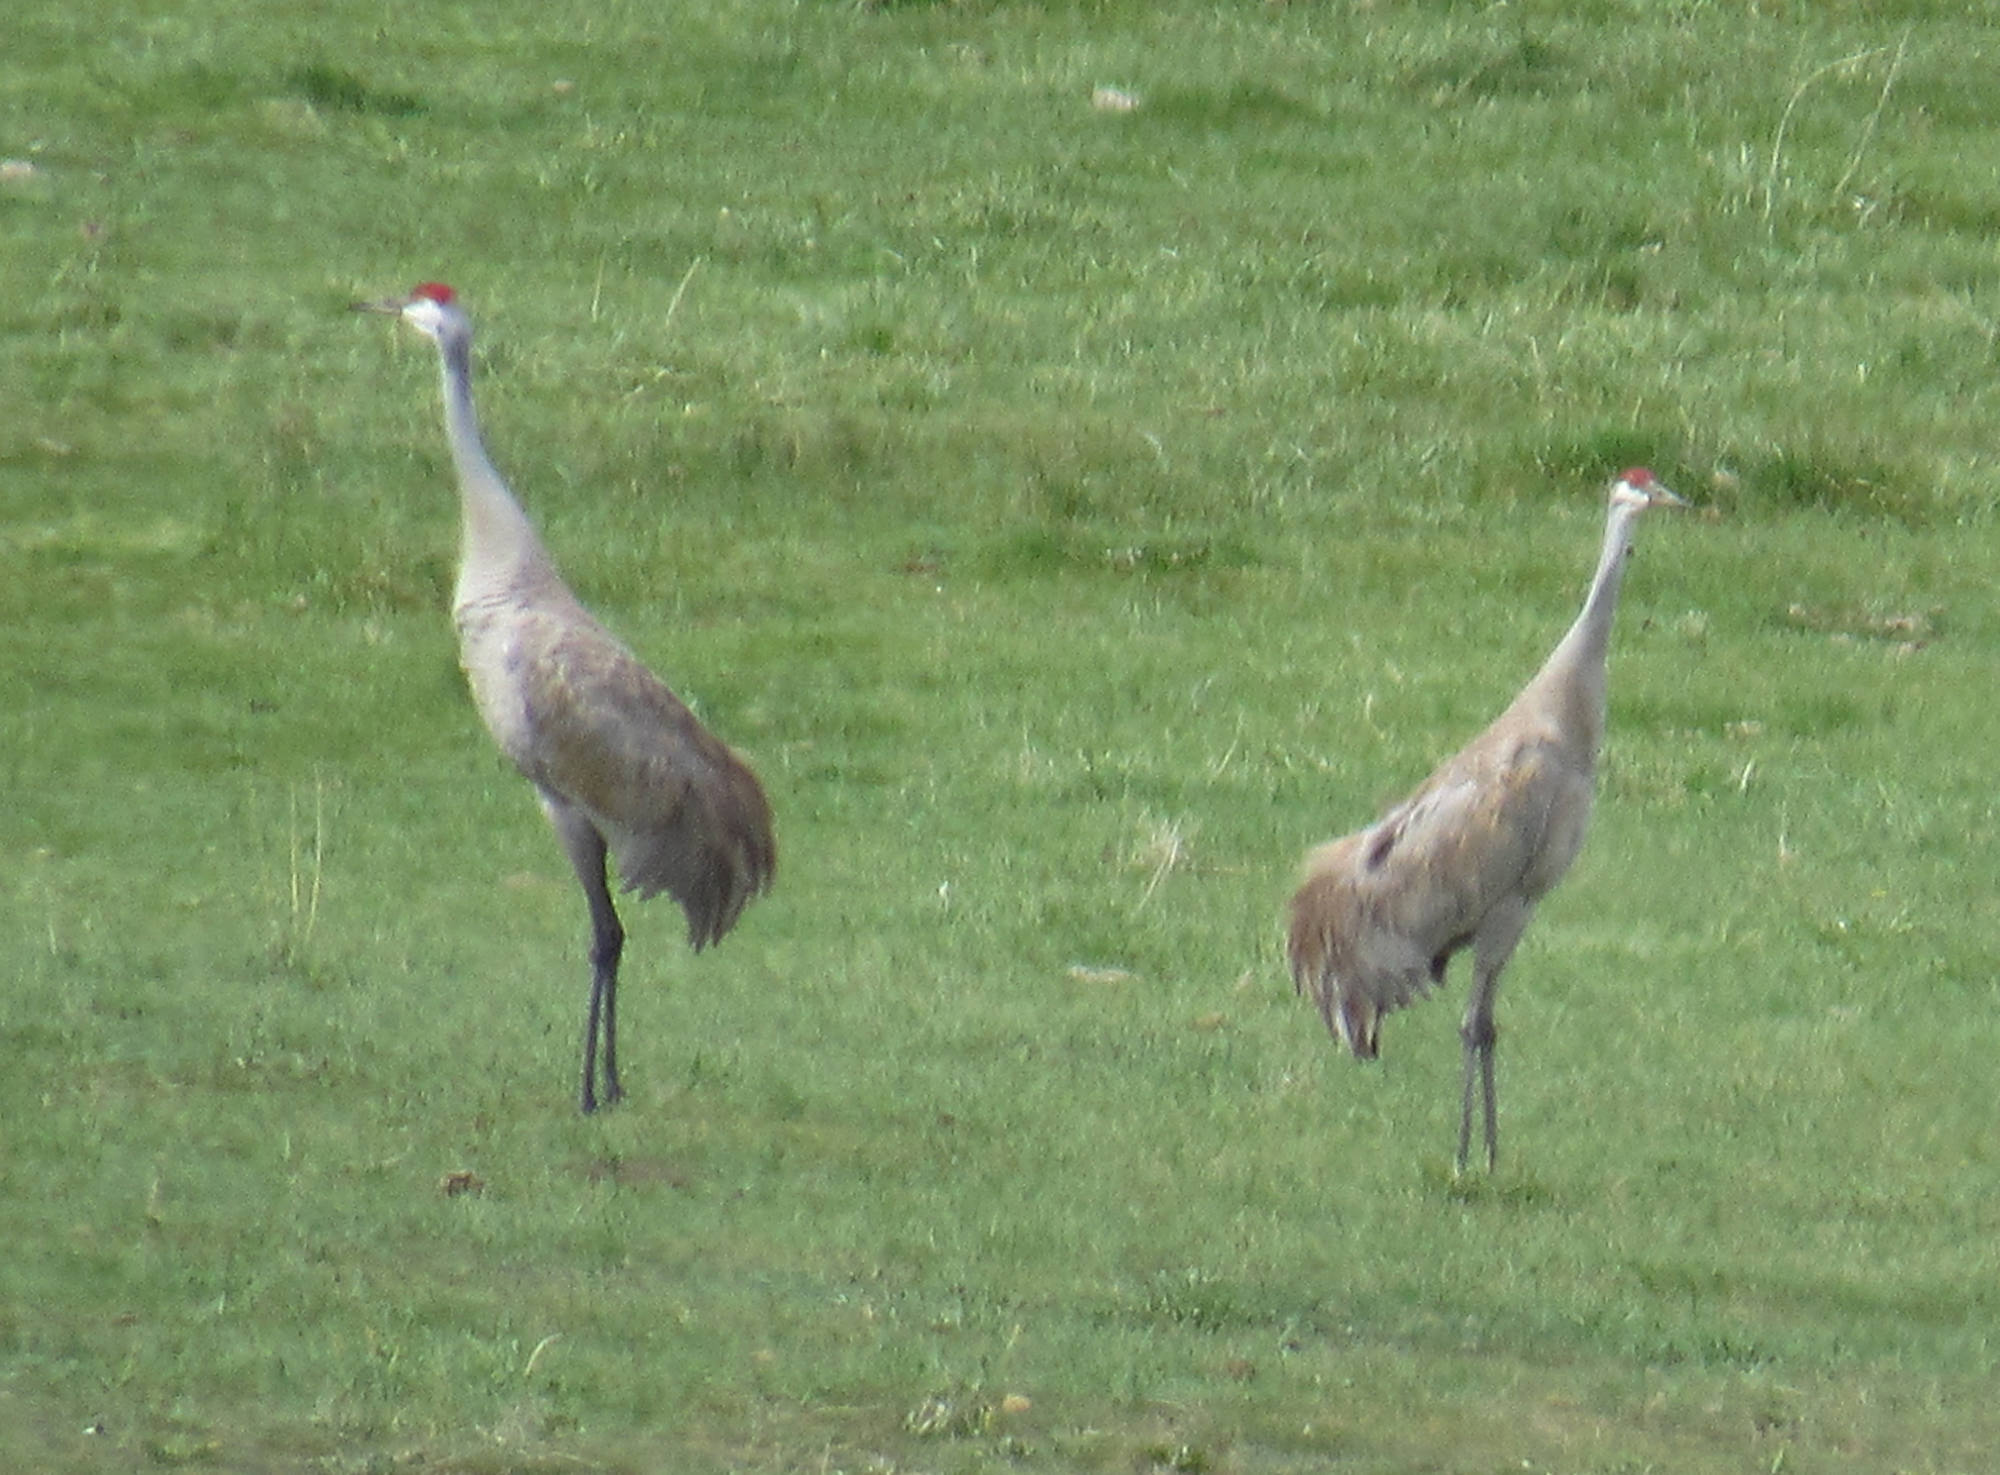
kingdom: Animalia
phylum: Chordata
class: Aves
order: Gruiformes
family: Gruidae
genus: Grus
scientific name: Grus canadensis
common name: Sandhill crane
